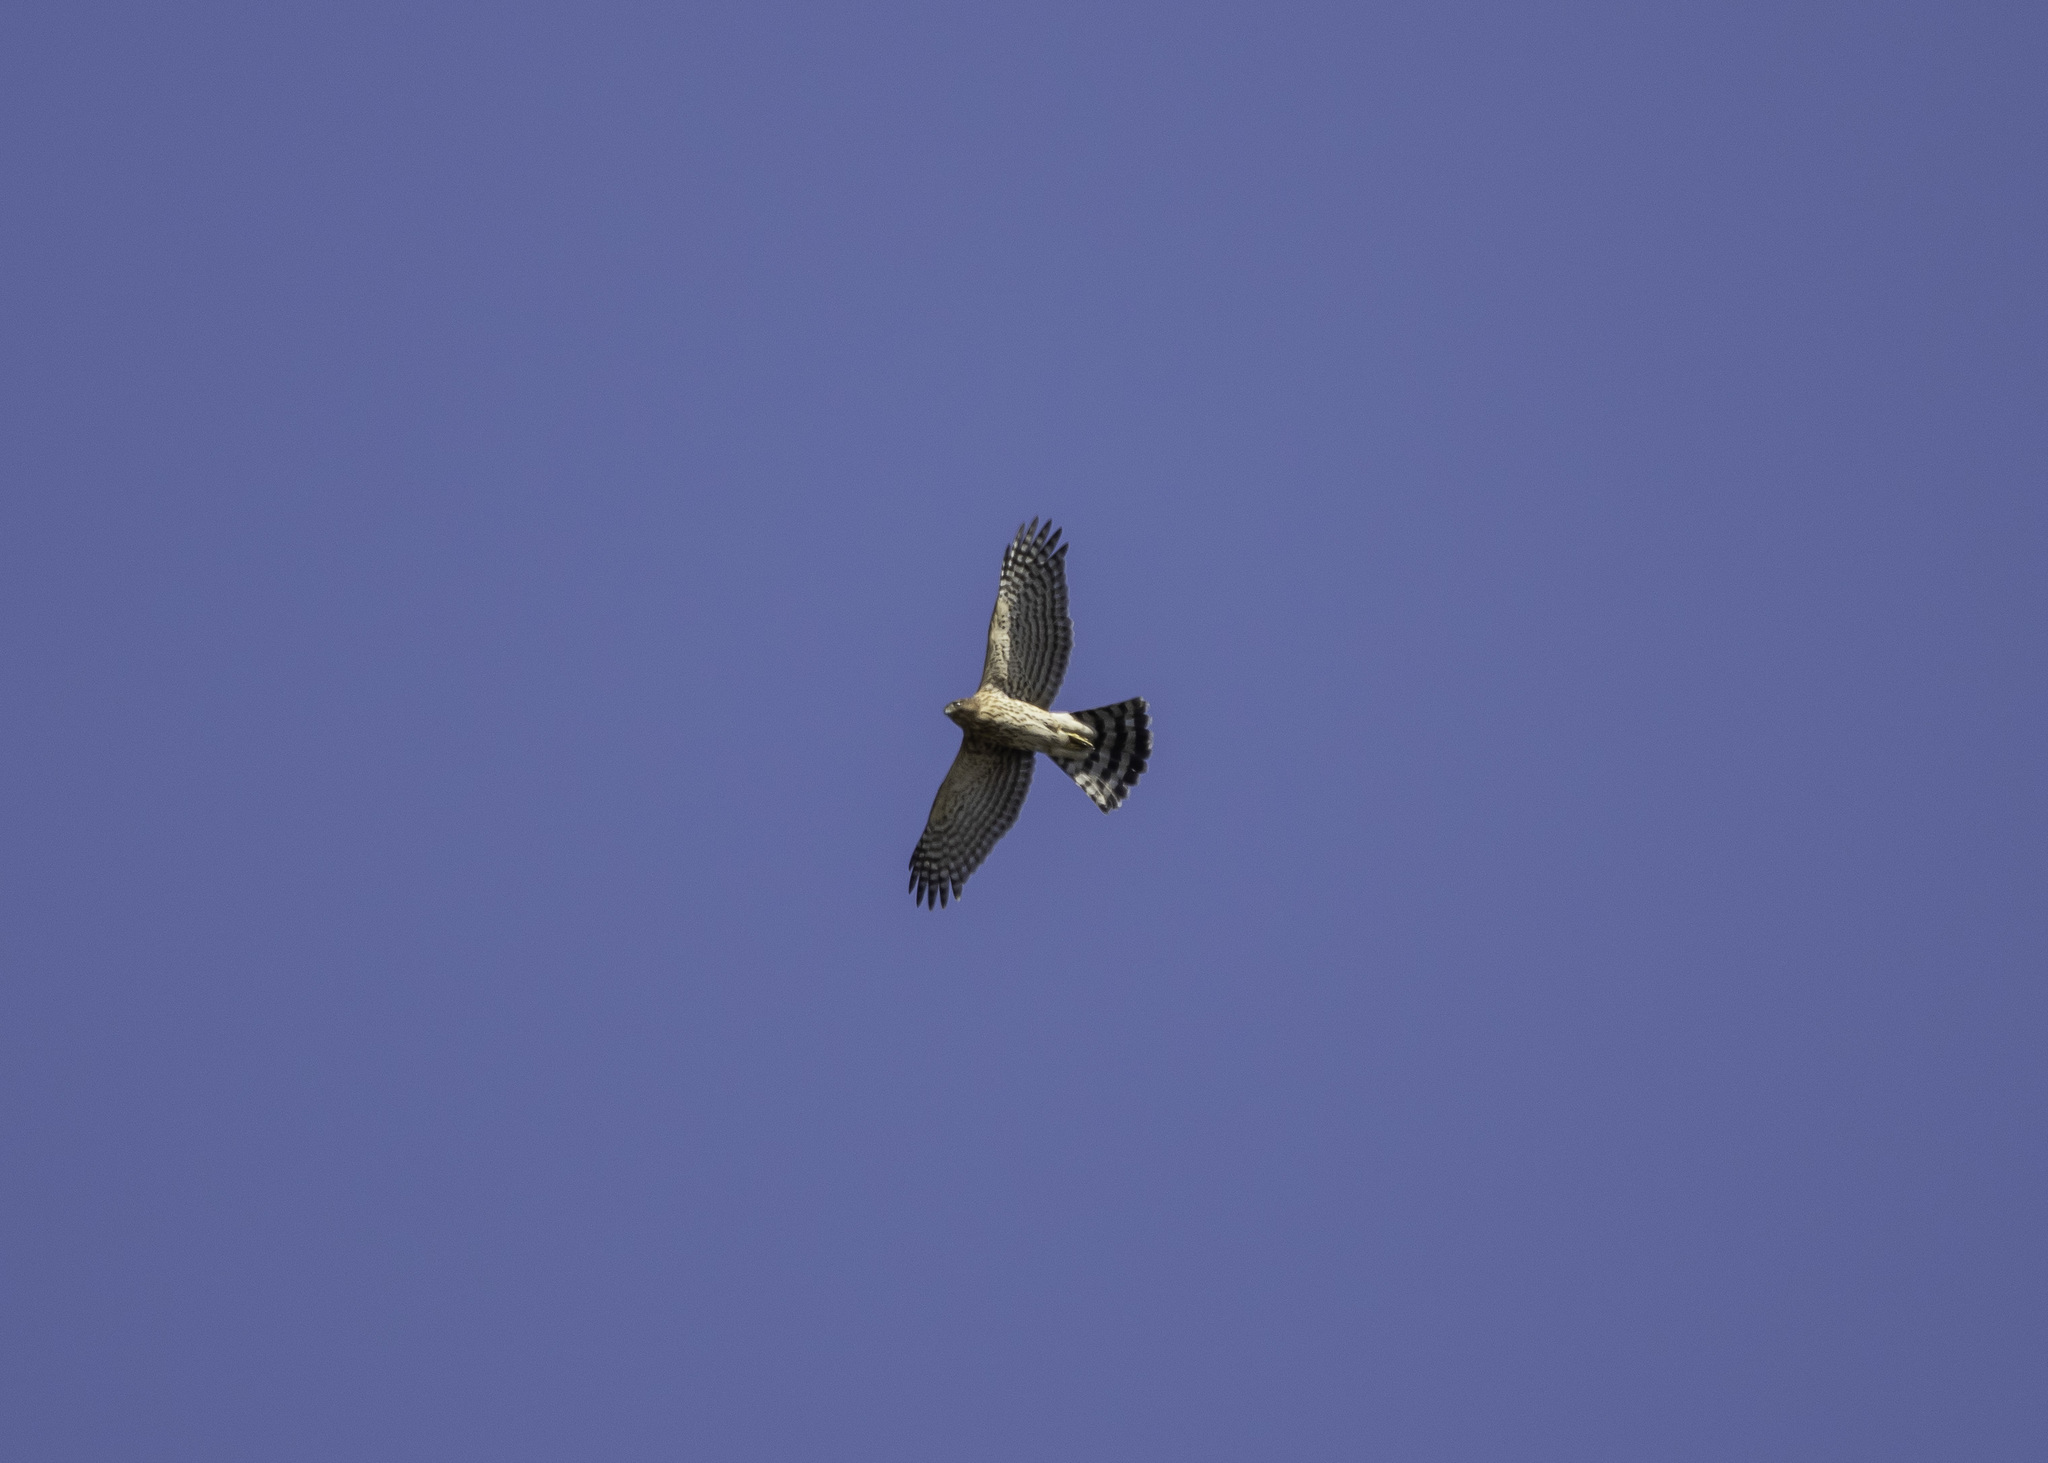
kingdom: Animalia
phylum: Chordata
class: Aves
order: Accipitriformes
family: Accipitridae
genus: Accipiter
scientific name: Accipiter cooperii
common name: Cooper's hawk
